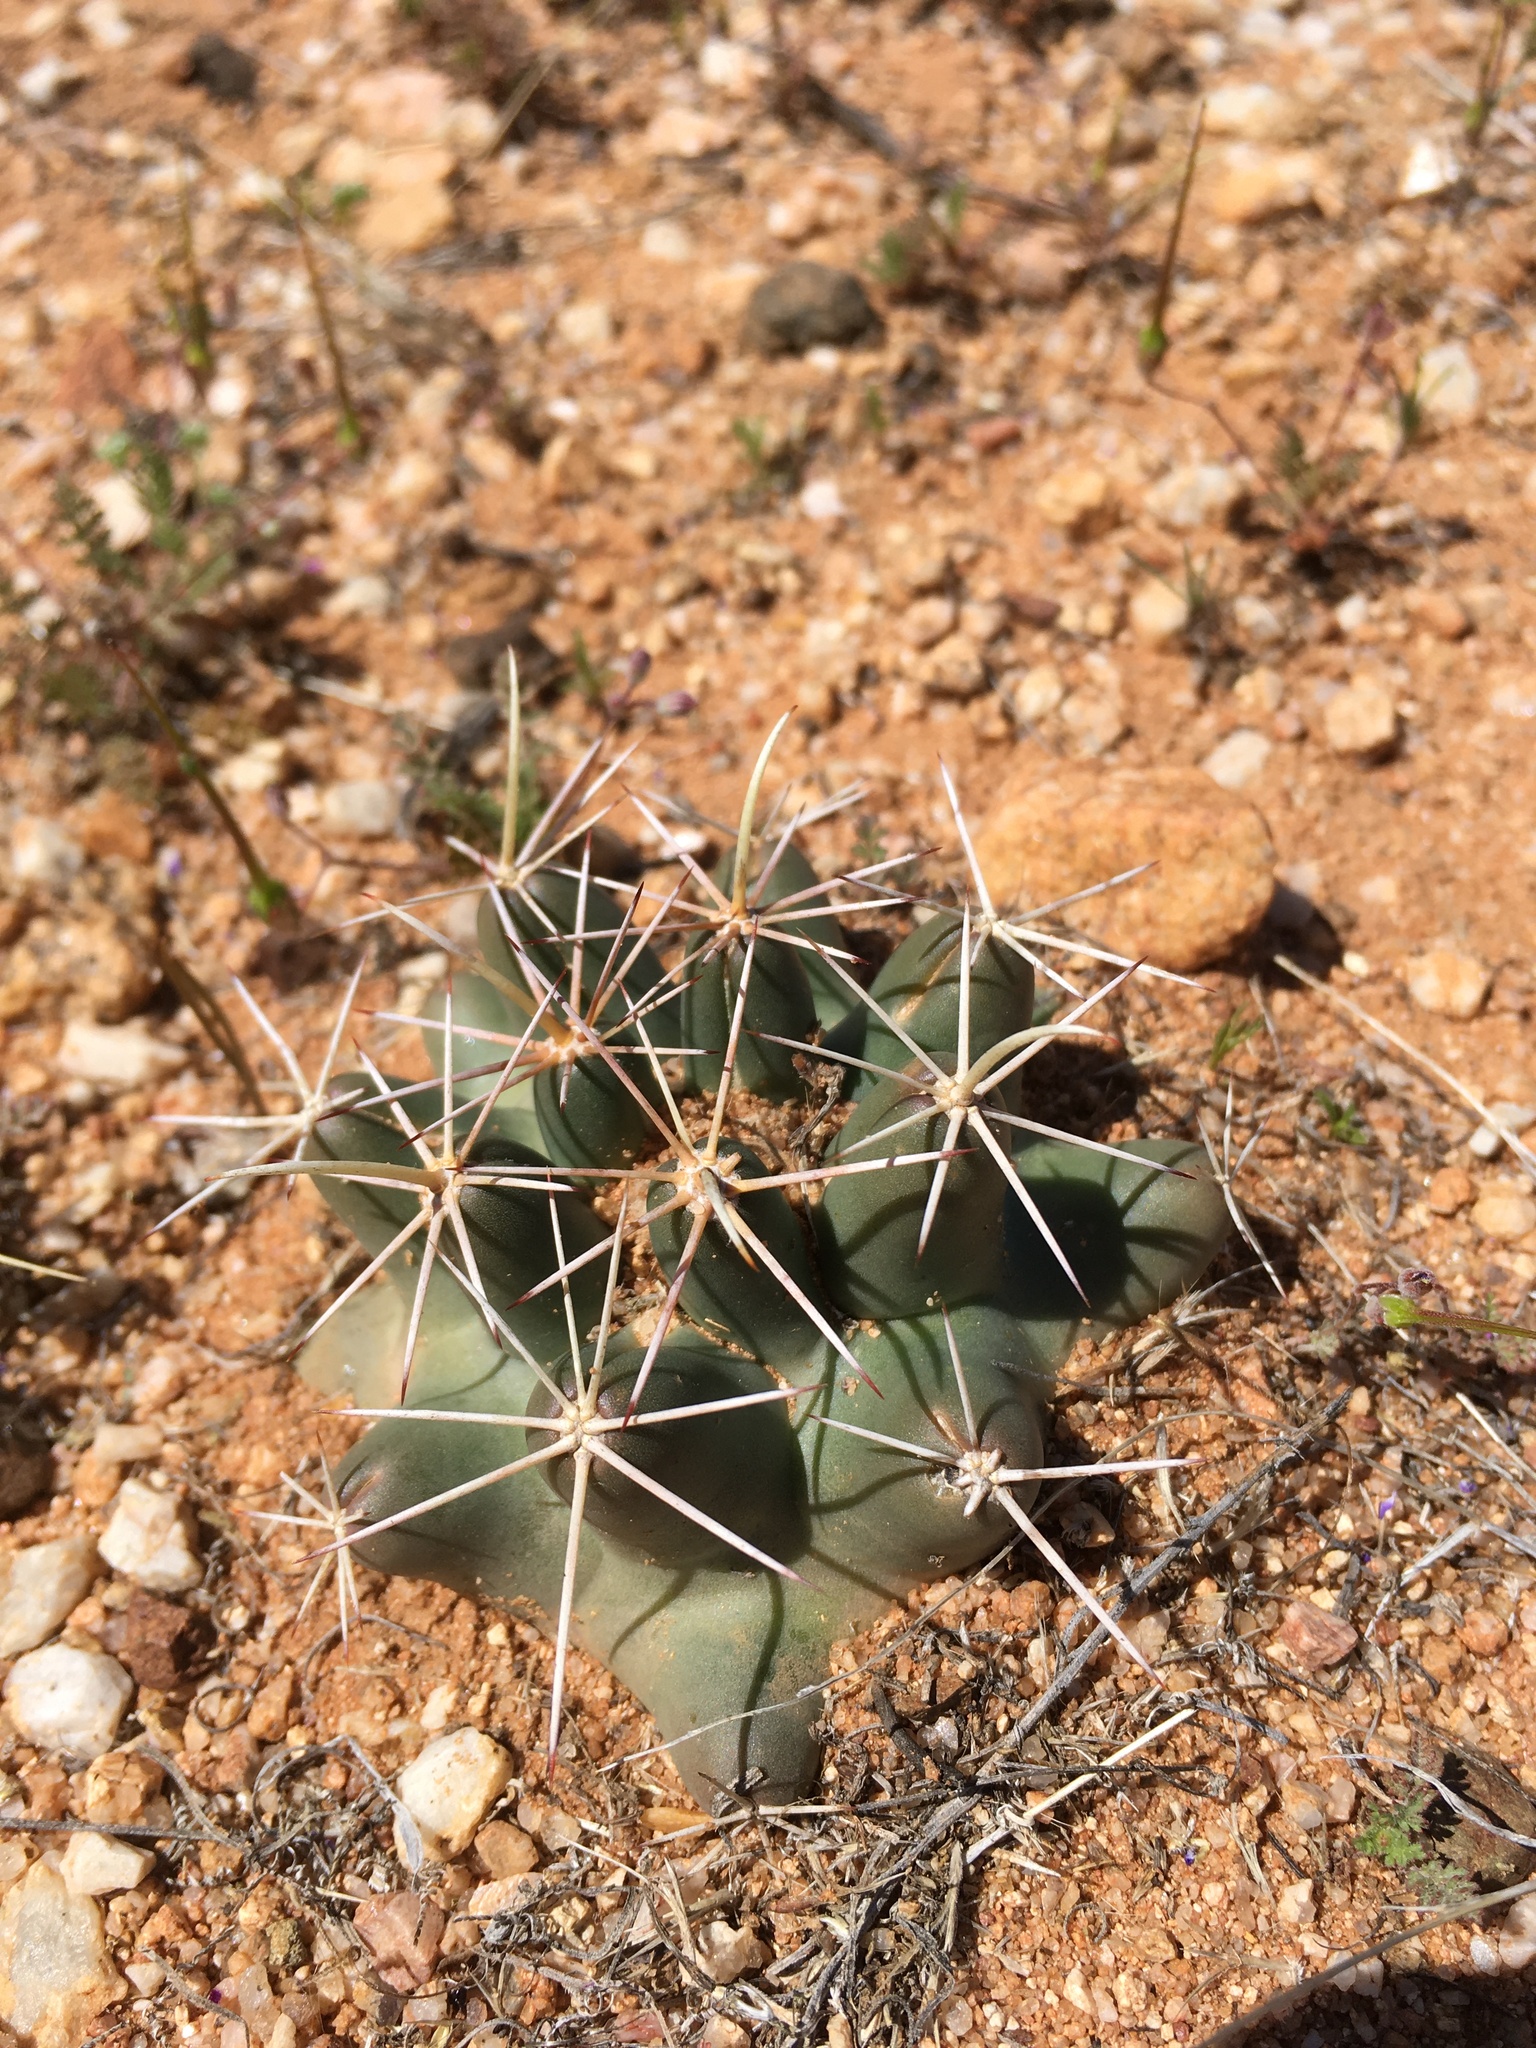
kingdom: Plantae
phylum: Tracheophyta
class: Magnoliopsida
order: Caryophyllales
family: Cactaceae
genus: Coryphantha
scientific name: Coryphantha robustispina
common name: Pima pineapple cactus
